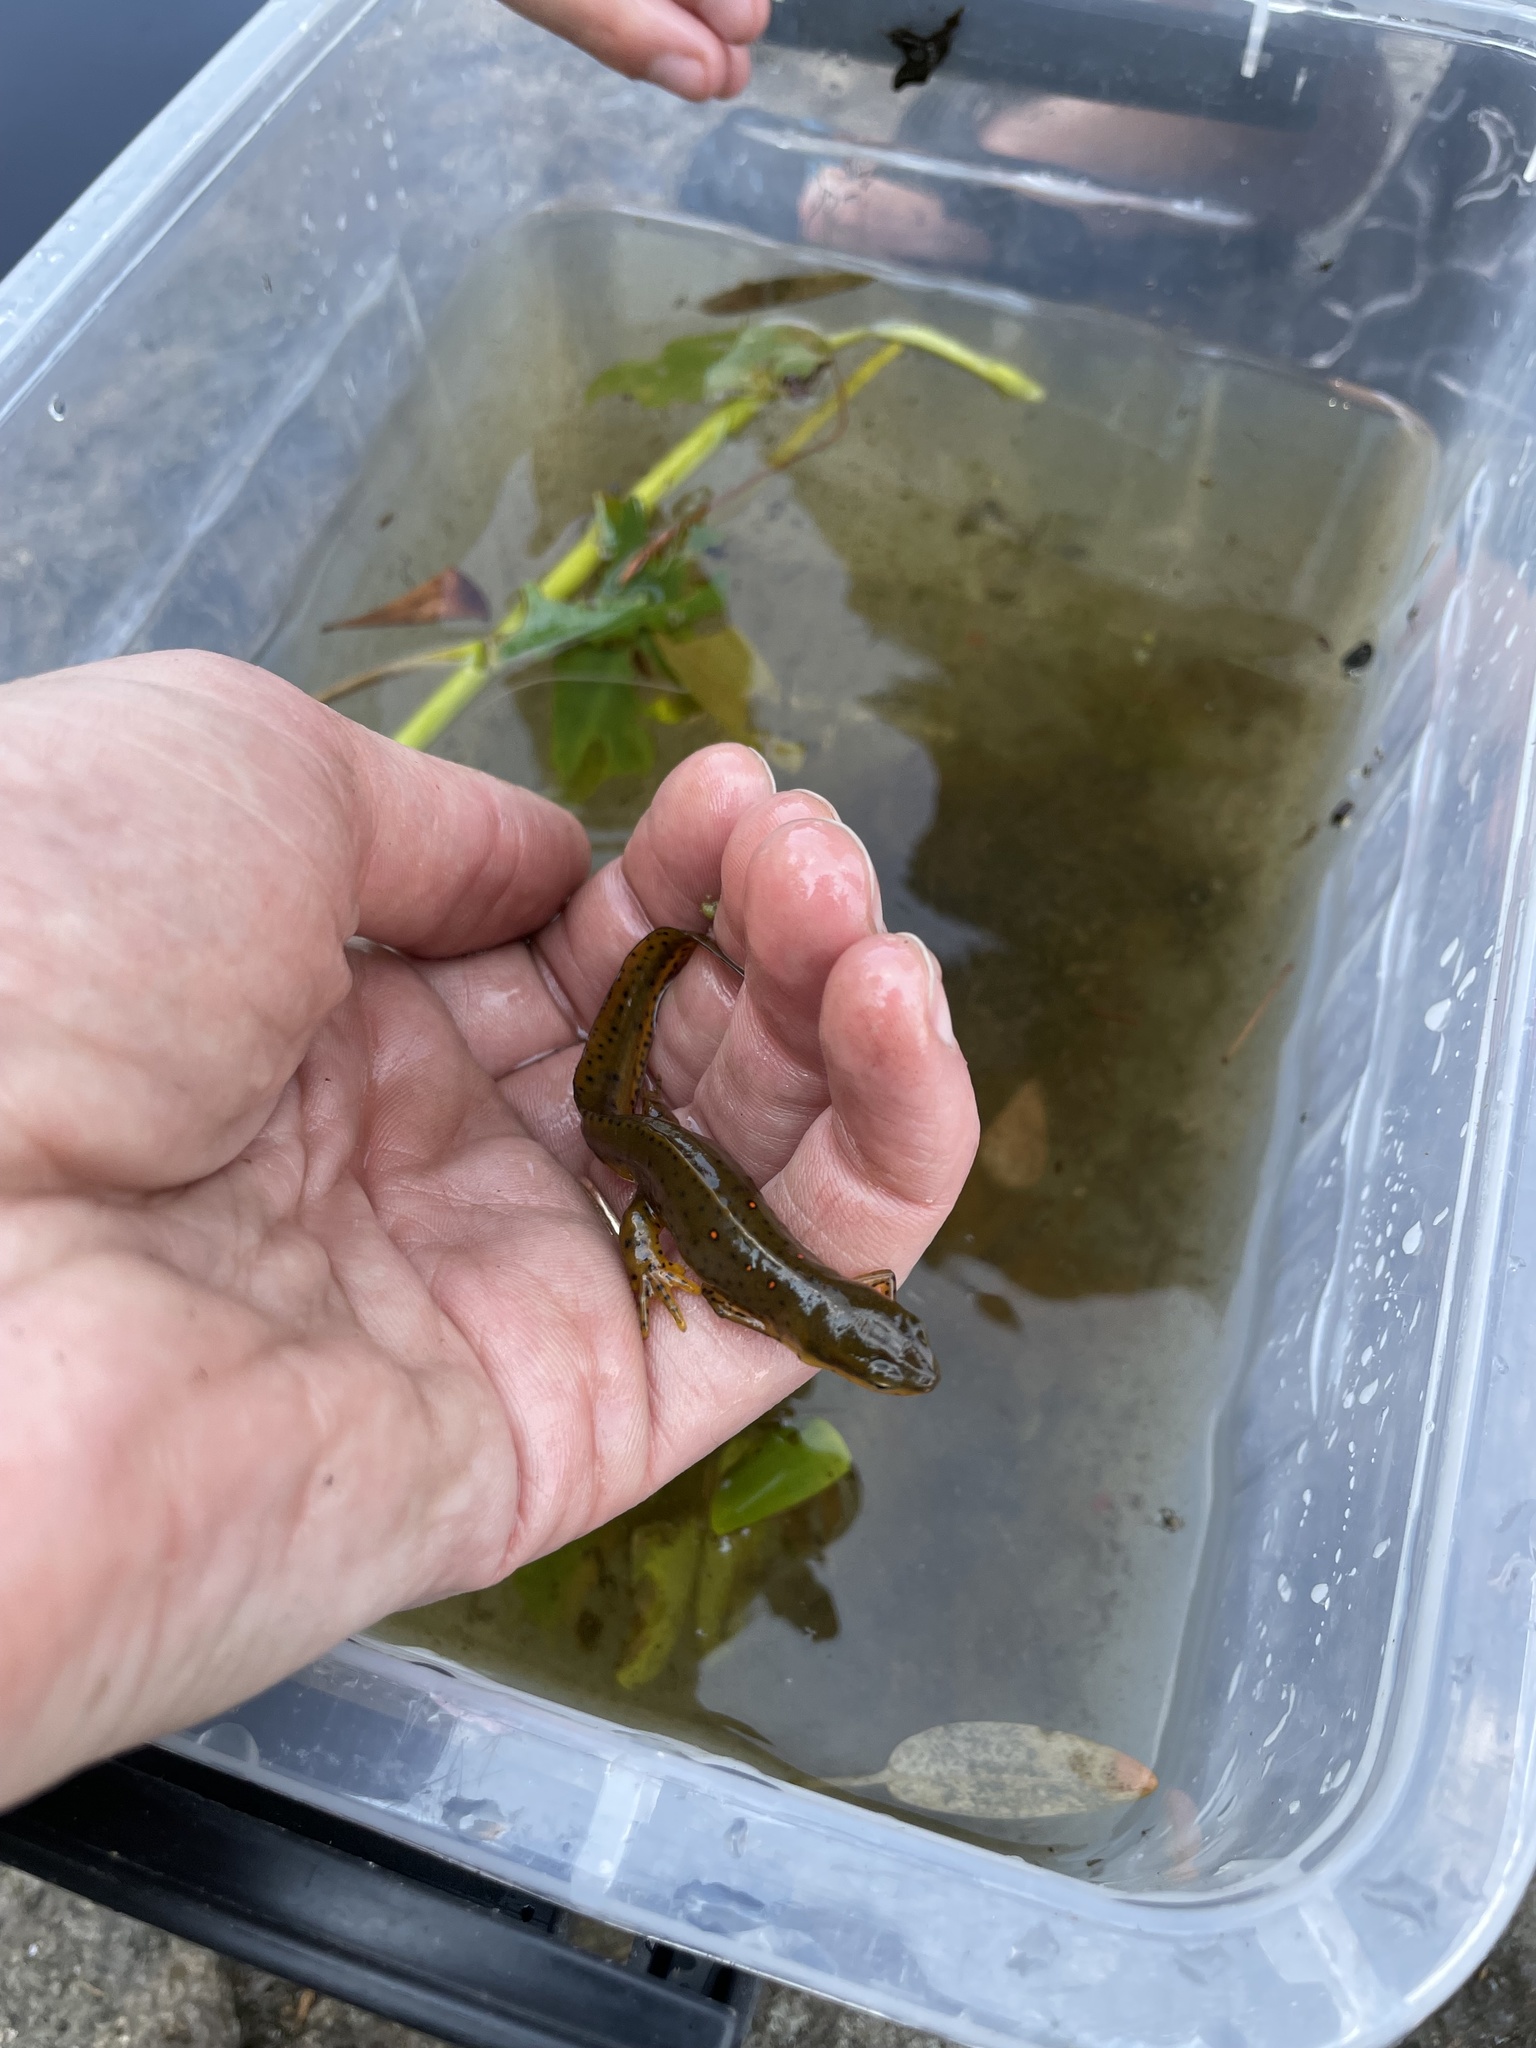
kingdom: Animalia
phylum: Chordata
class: Amphibia
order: Caudata
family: Salamandridae
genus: Notophthalmus
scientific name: Notophthalmus viridescens
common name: Eastern newt
